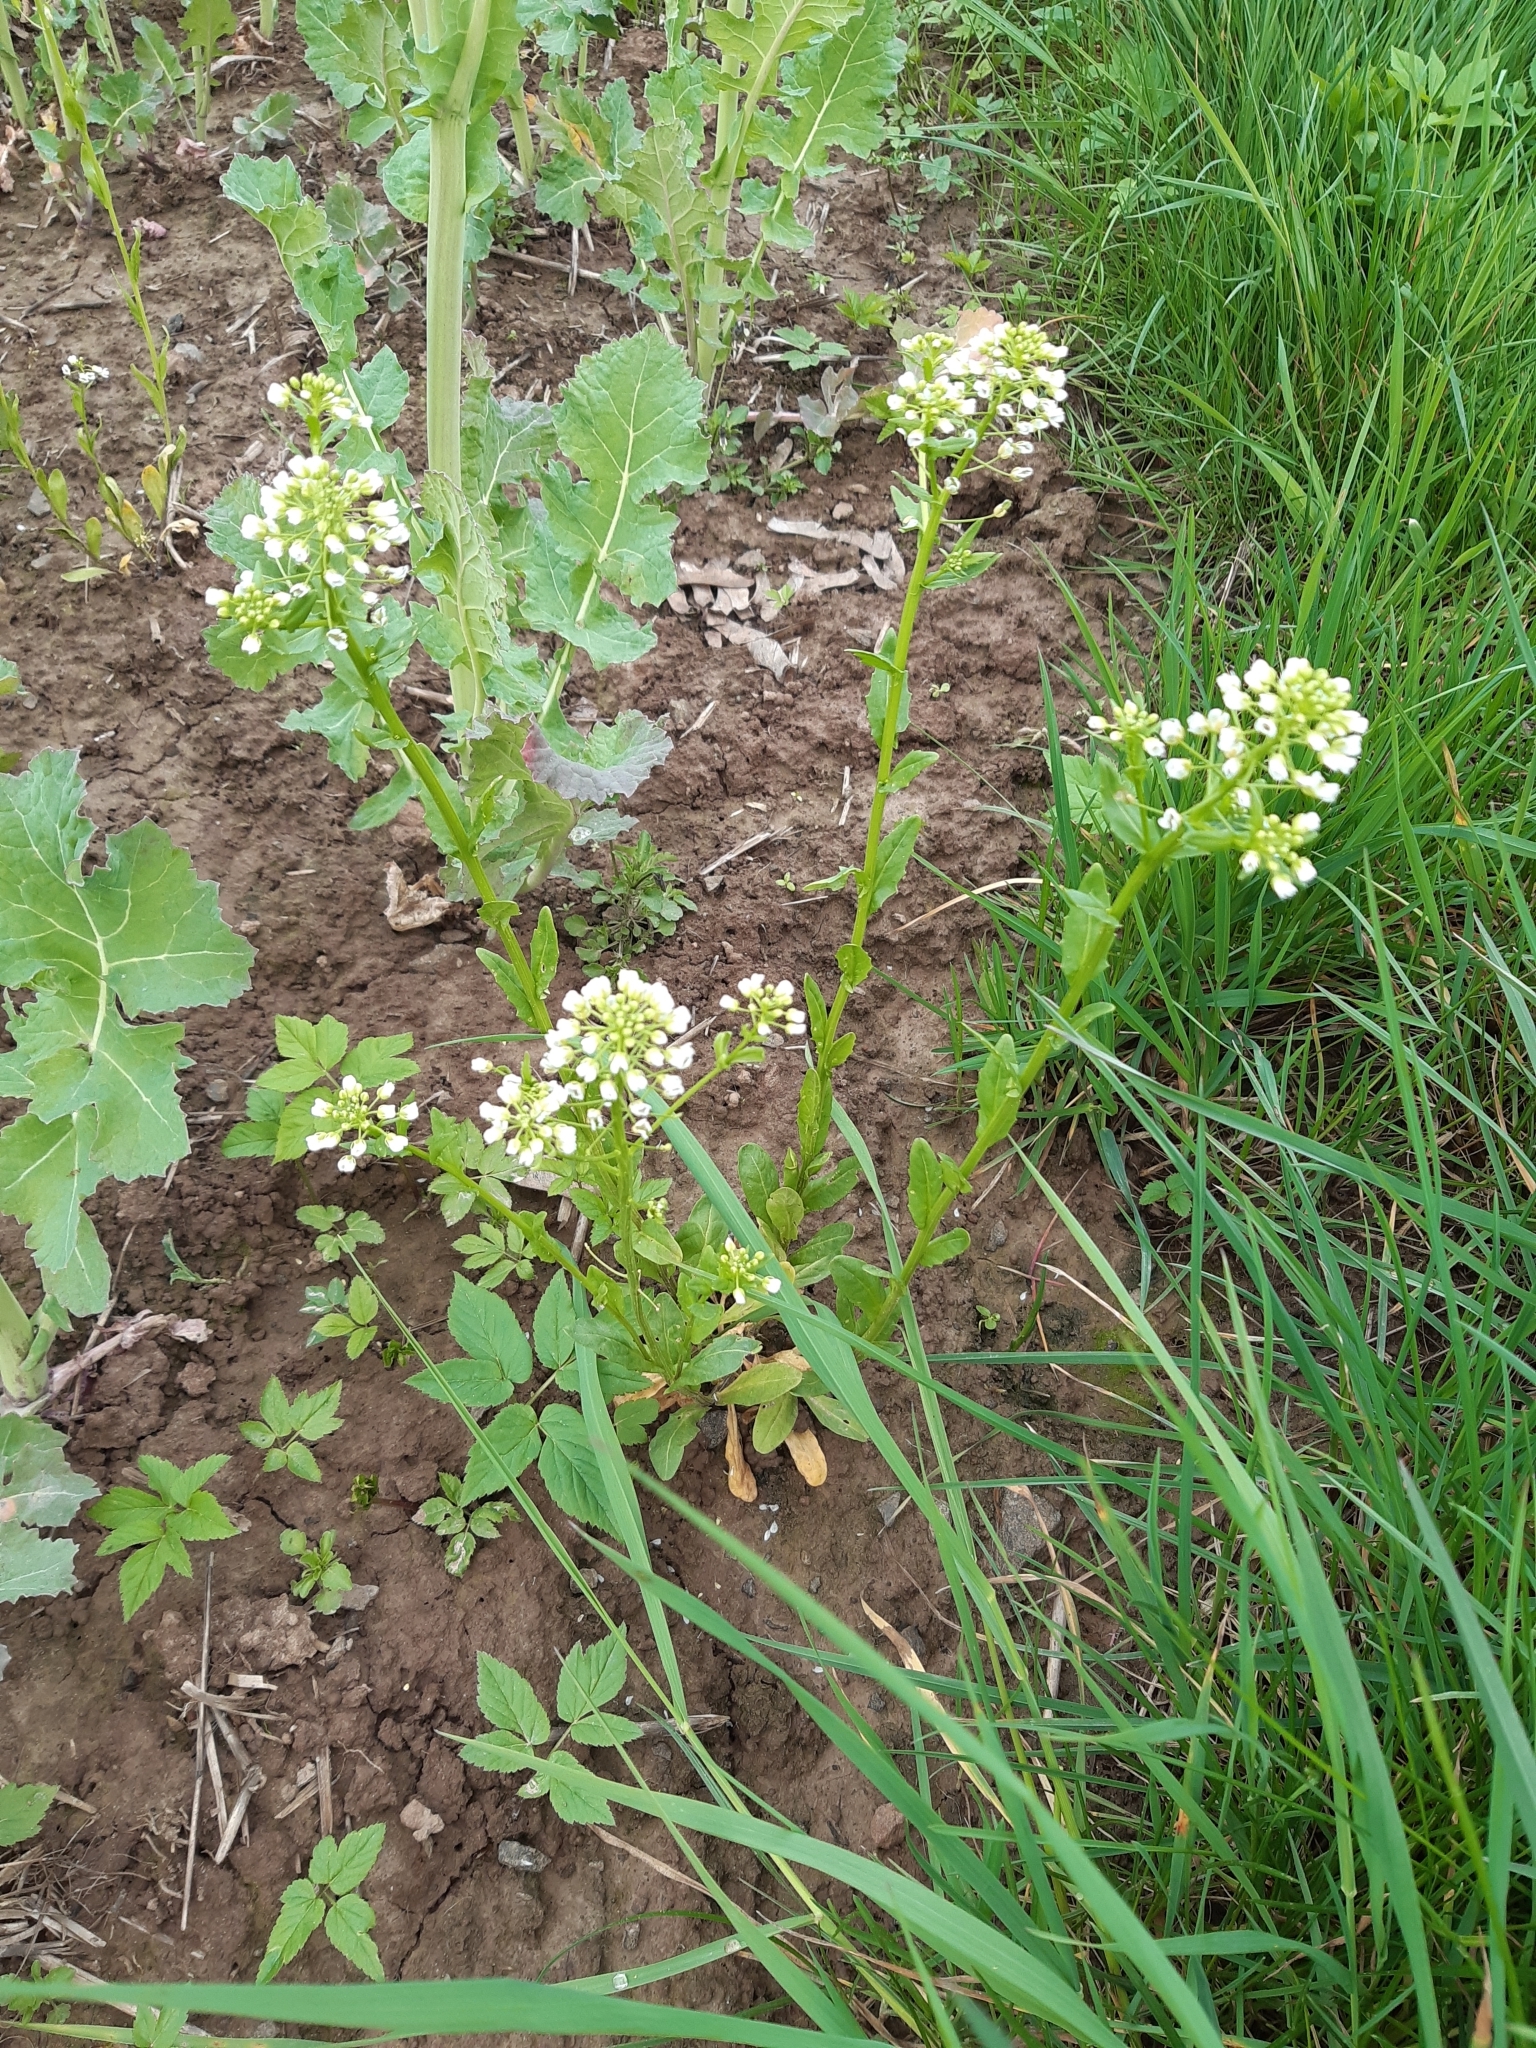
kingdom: Plantae
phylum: Tracheophyta
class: Magnoliopsida
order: Brassicales
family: Brassicaceae
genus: Thlaspi
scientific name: Thlaspi arvense
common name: Field pennycress
